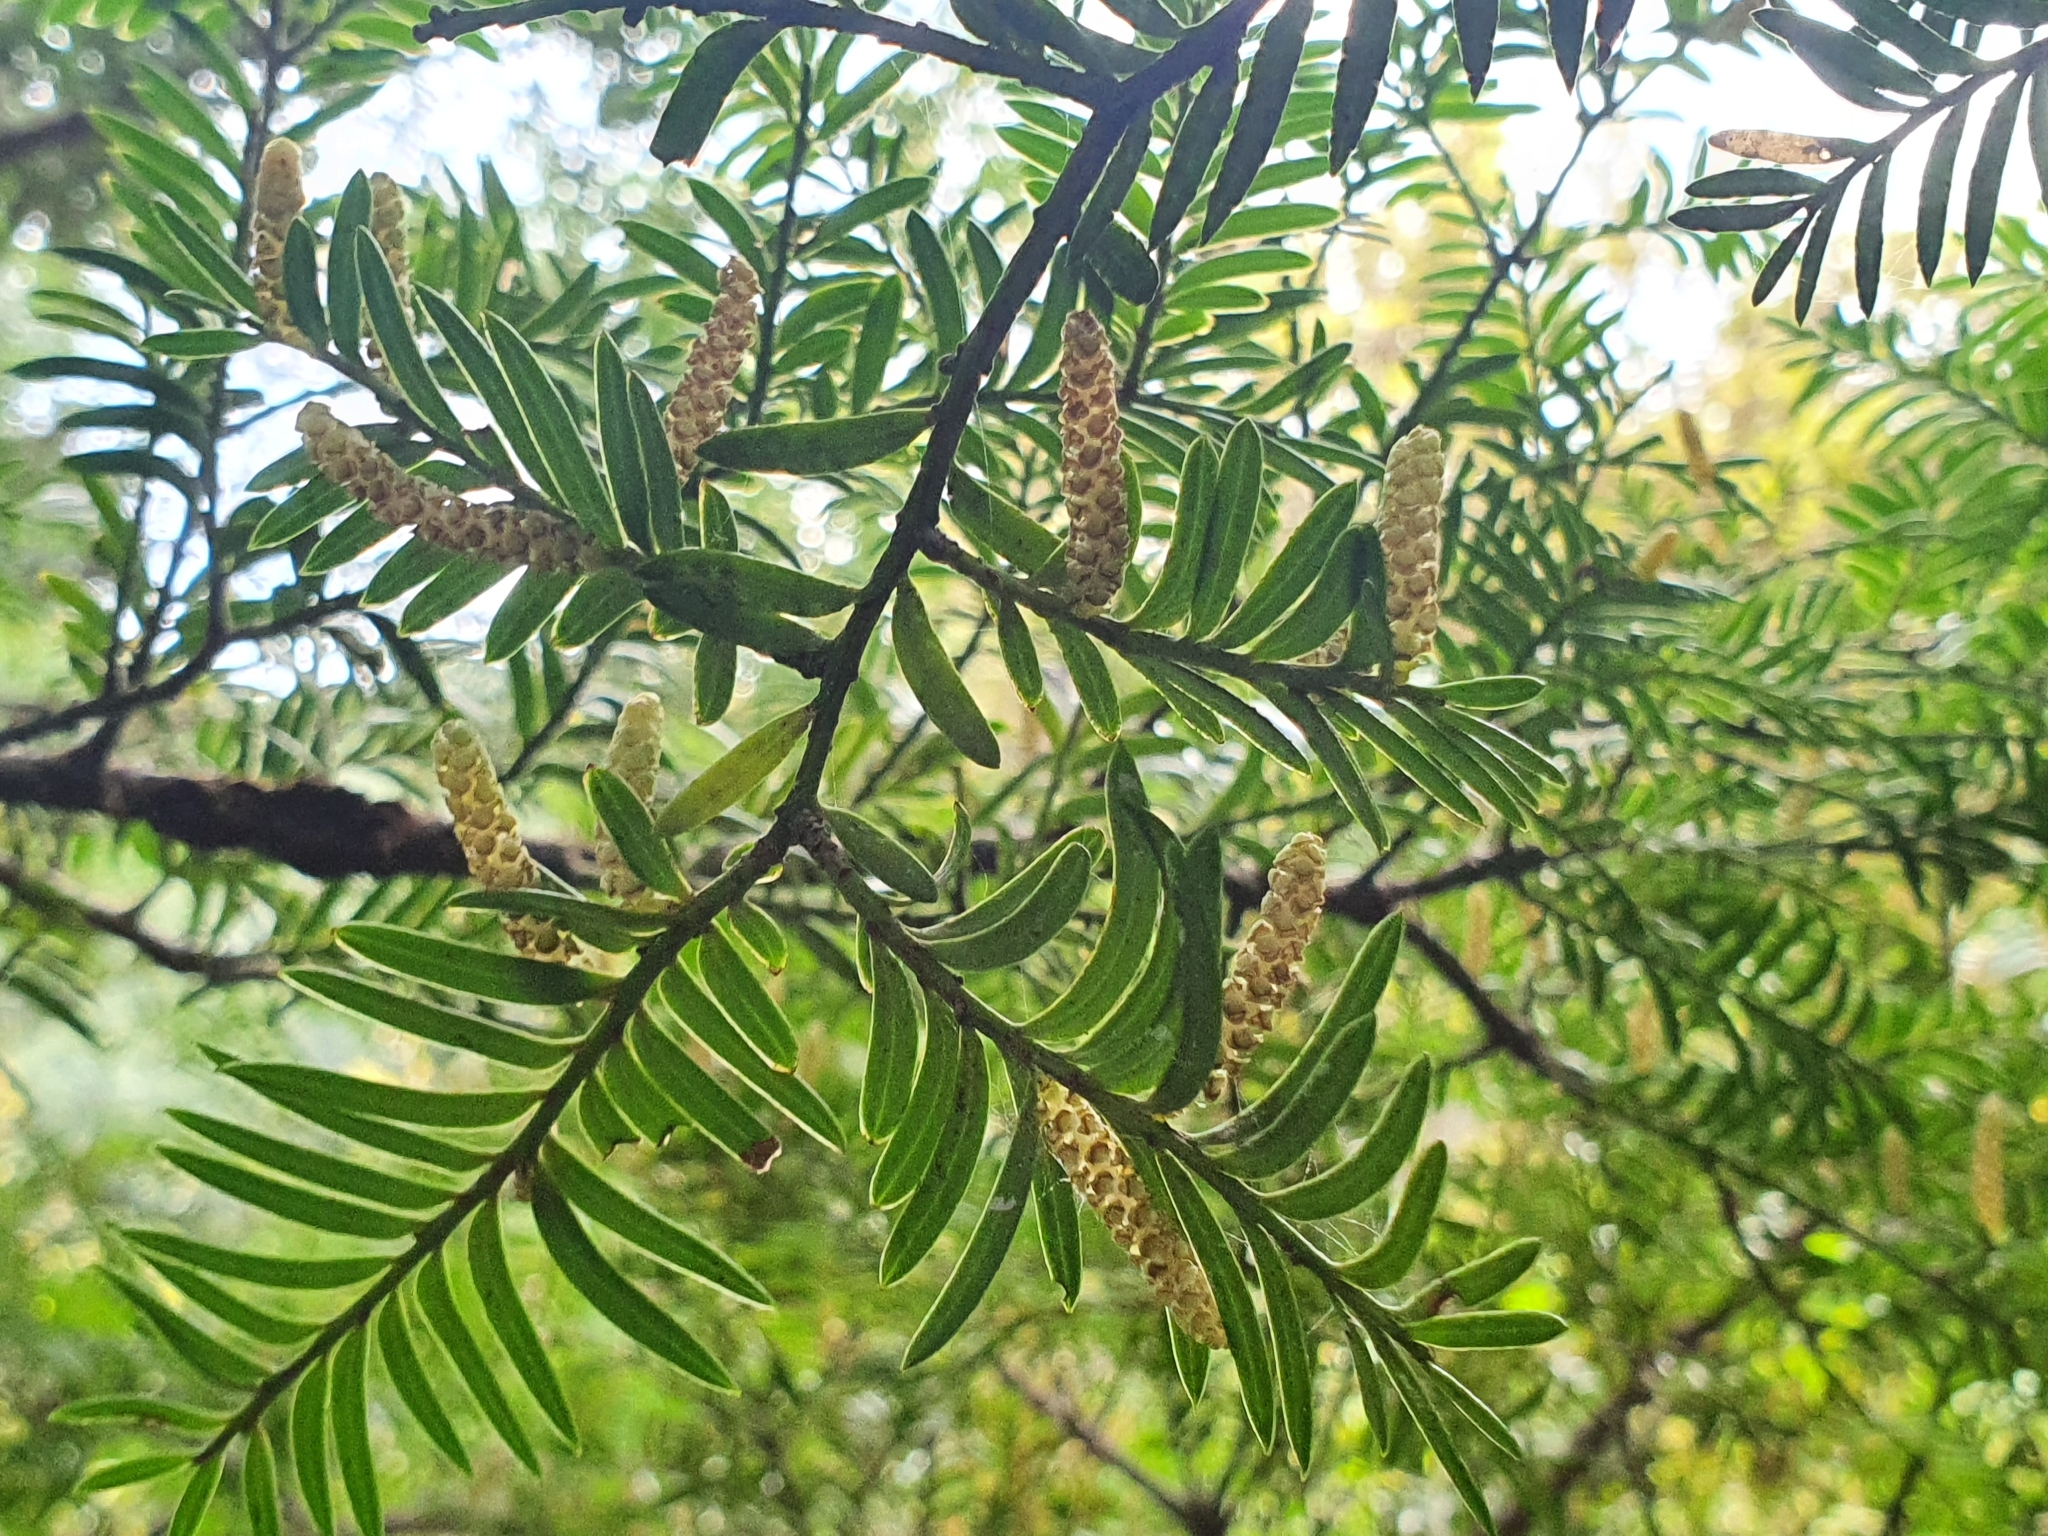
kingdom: Plantae
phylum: Tracheophyta
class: Pinopsida
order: Pinales
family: Podocarpaceae
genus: Prumnopitys
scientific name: Prumnopitys ferruginea
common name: Brown pine
